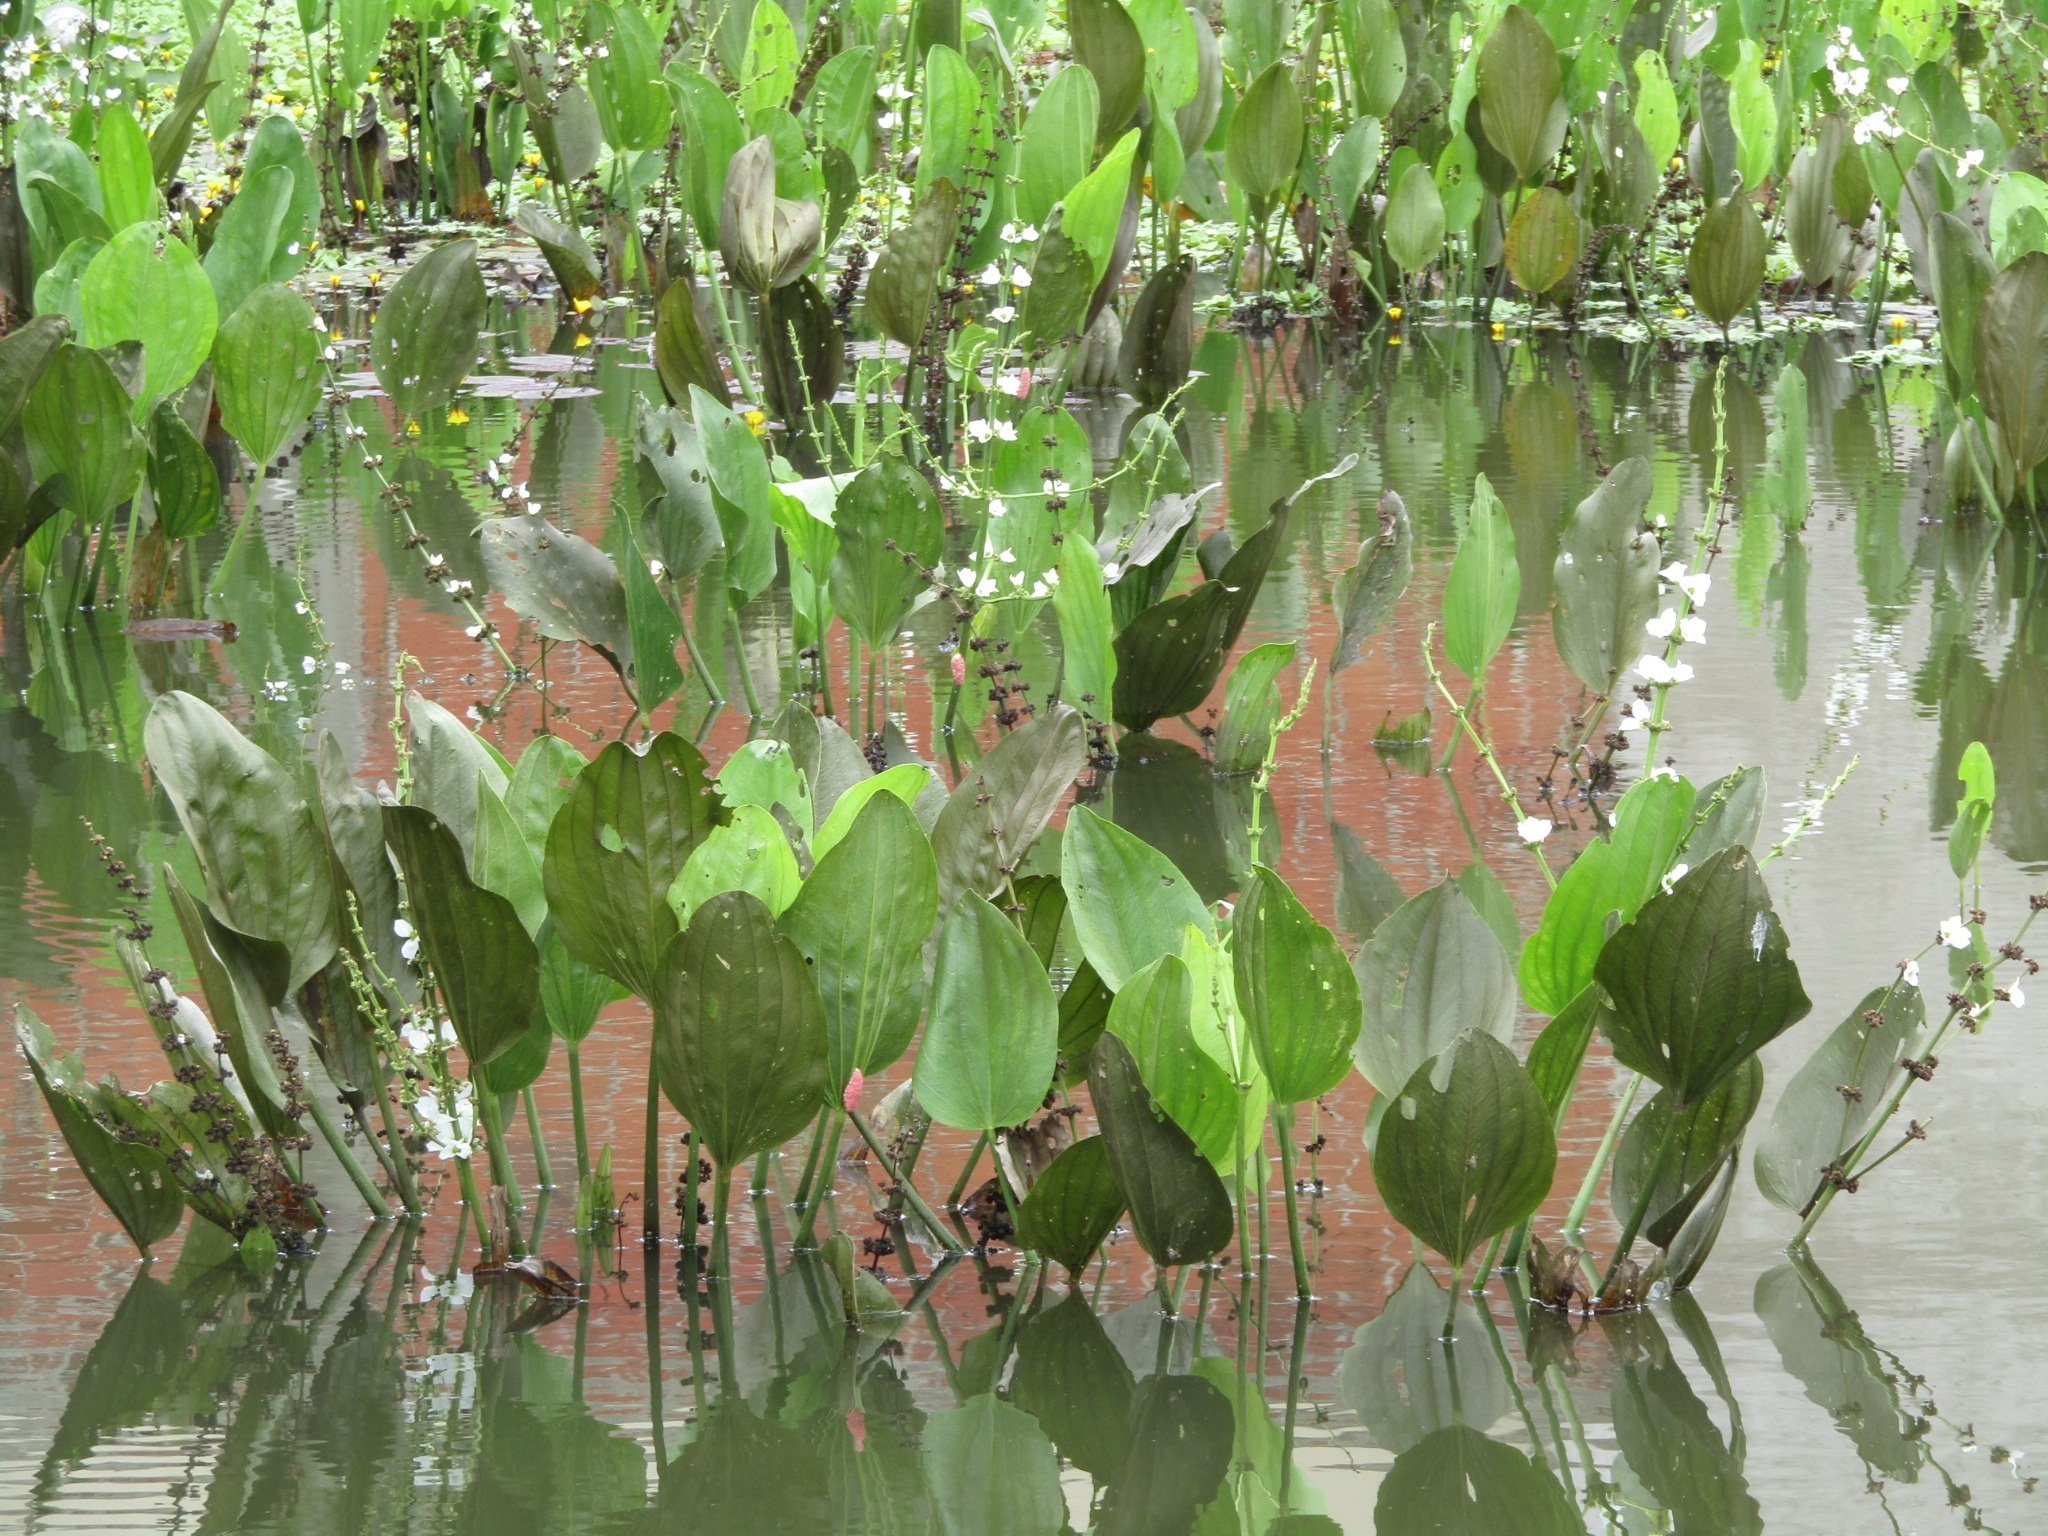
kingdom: Plantae
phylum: Tracheophyta
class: Liliopsida
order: Alismatales
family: Alismataceae
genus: Aquarius
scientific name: Aquarius pubescens
